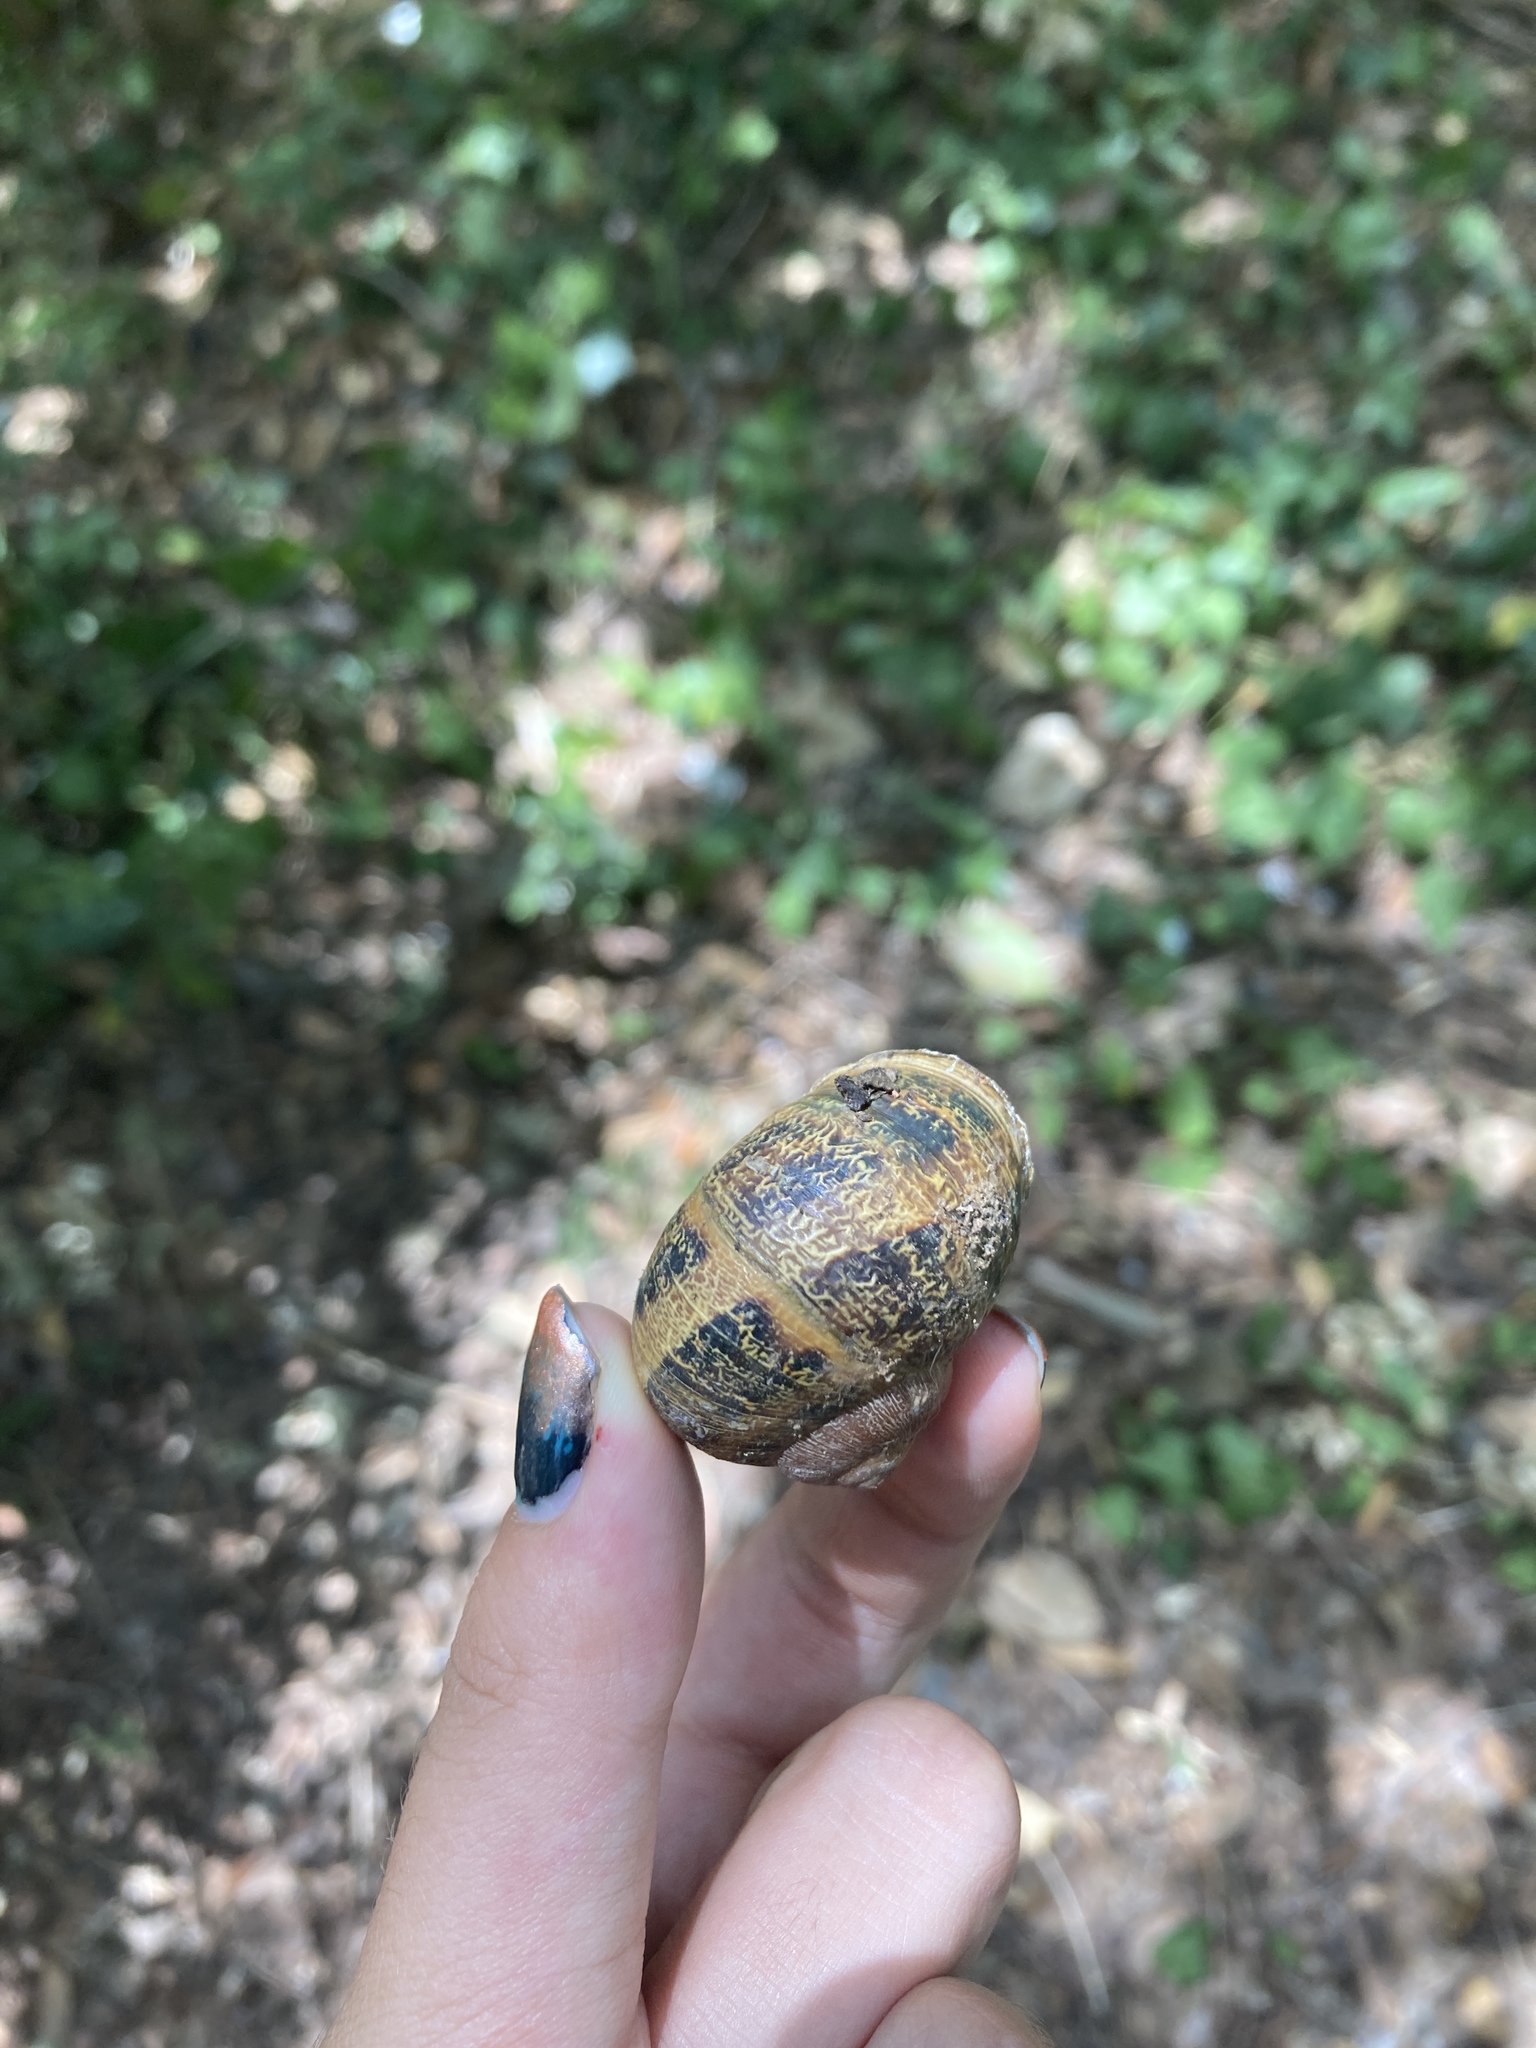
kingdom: Animalia
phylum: Mollusca
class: Gastropoda
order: Stylommatophora
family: Helicidae
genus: Cornu
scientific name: Cornu aspersum
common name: Brown garden snail
